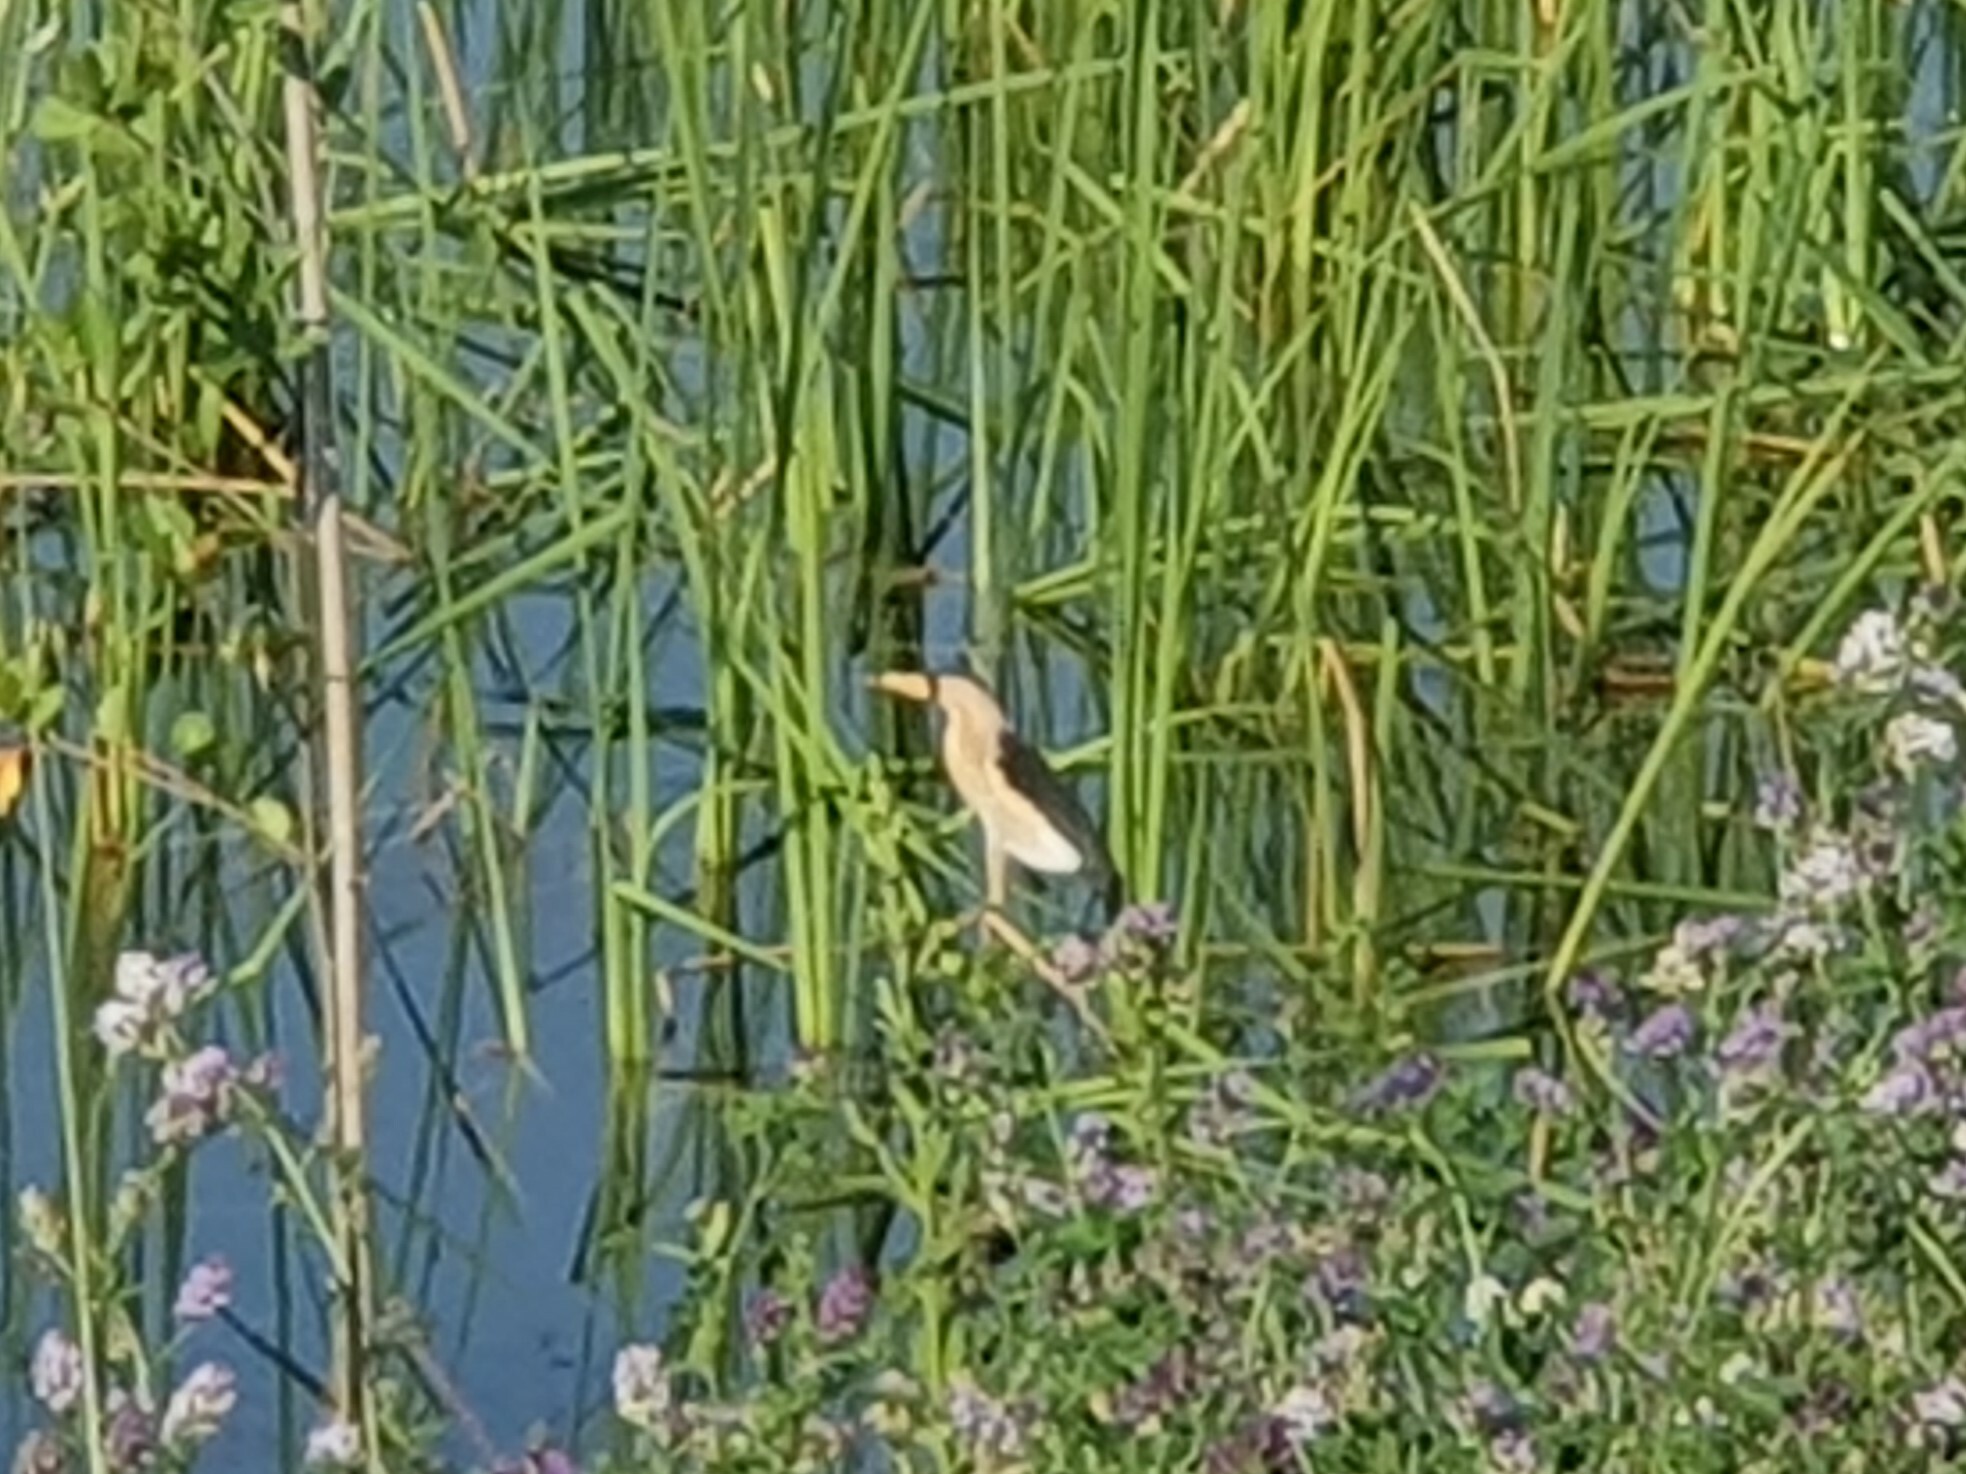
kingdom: Animalia
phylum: Chordata
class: Aves
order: Pelecaniformes
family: Ardeidae
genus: Ixobrychus
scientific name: Ixobrychus minutus
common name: Little bittern
